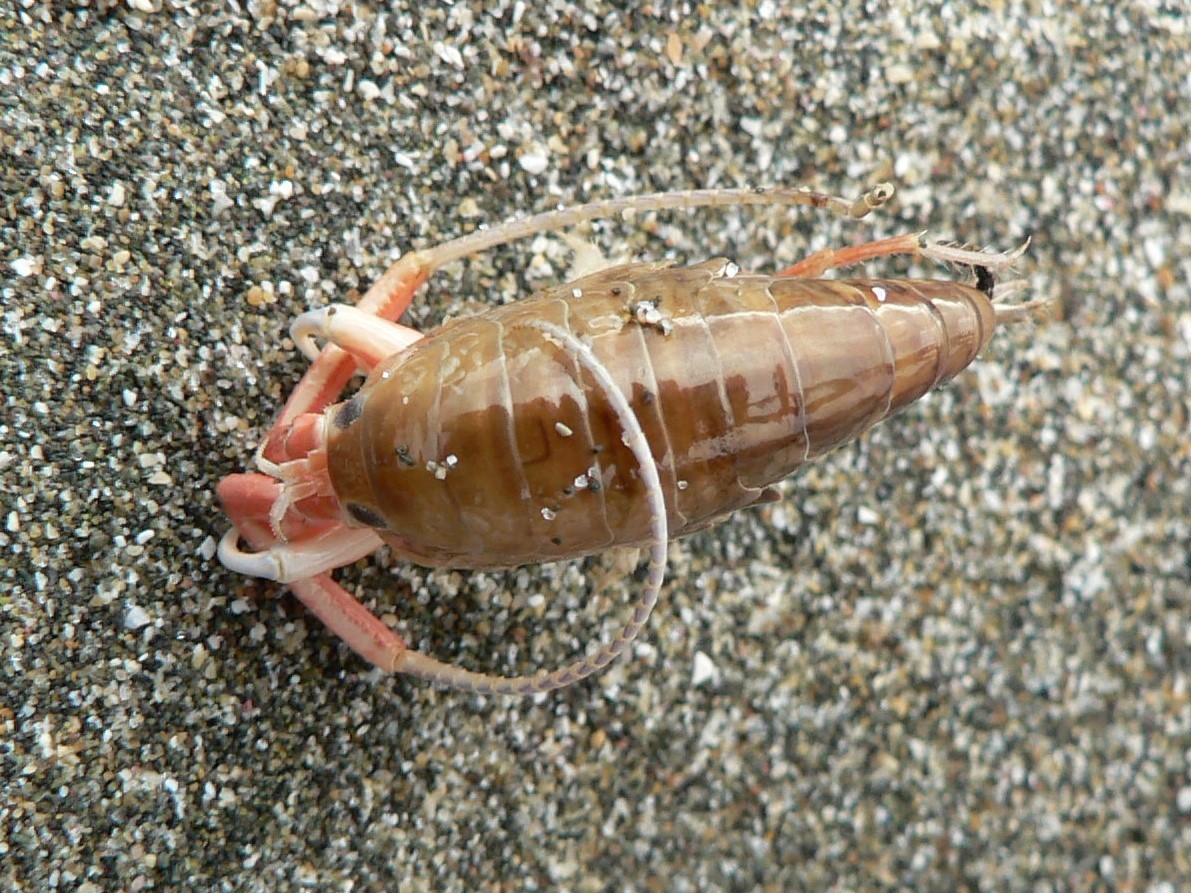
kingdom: Animalia
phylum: Arthropoda
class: Malacostraca
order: Amphipoda
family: Talitridae
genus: Megalorchestia
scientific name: Megalorchestia californiana
